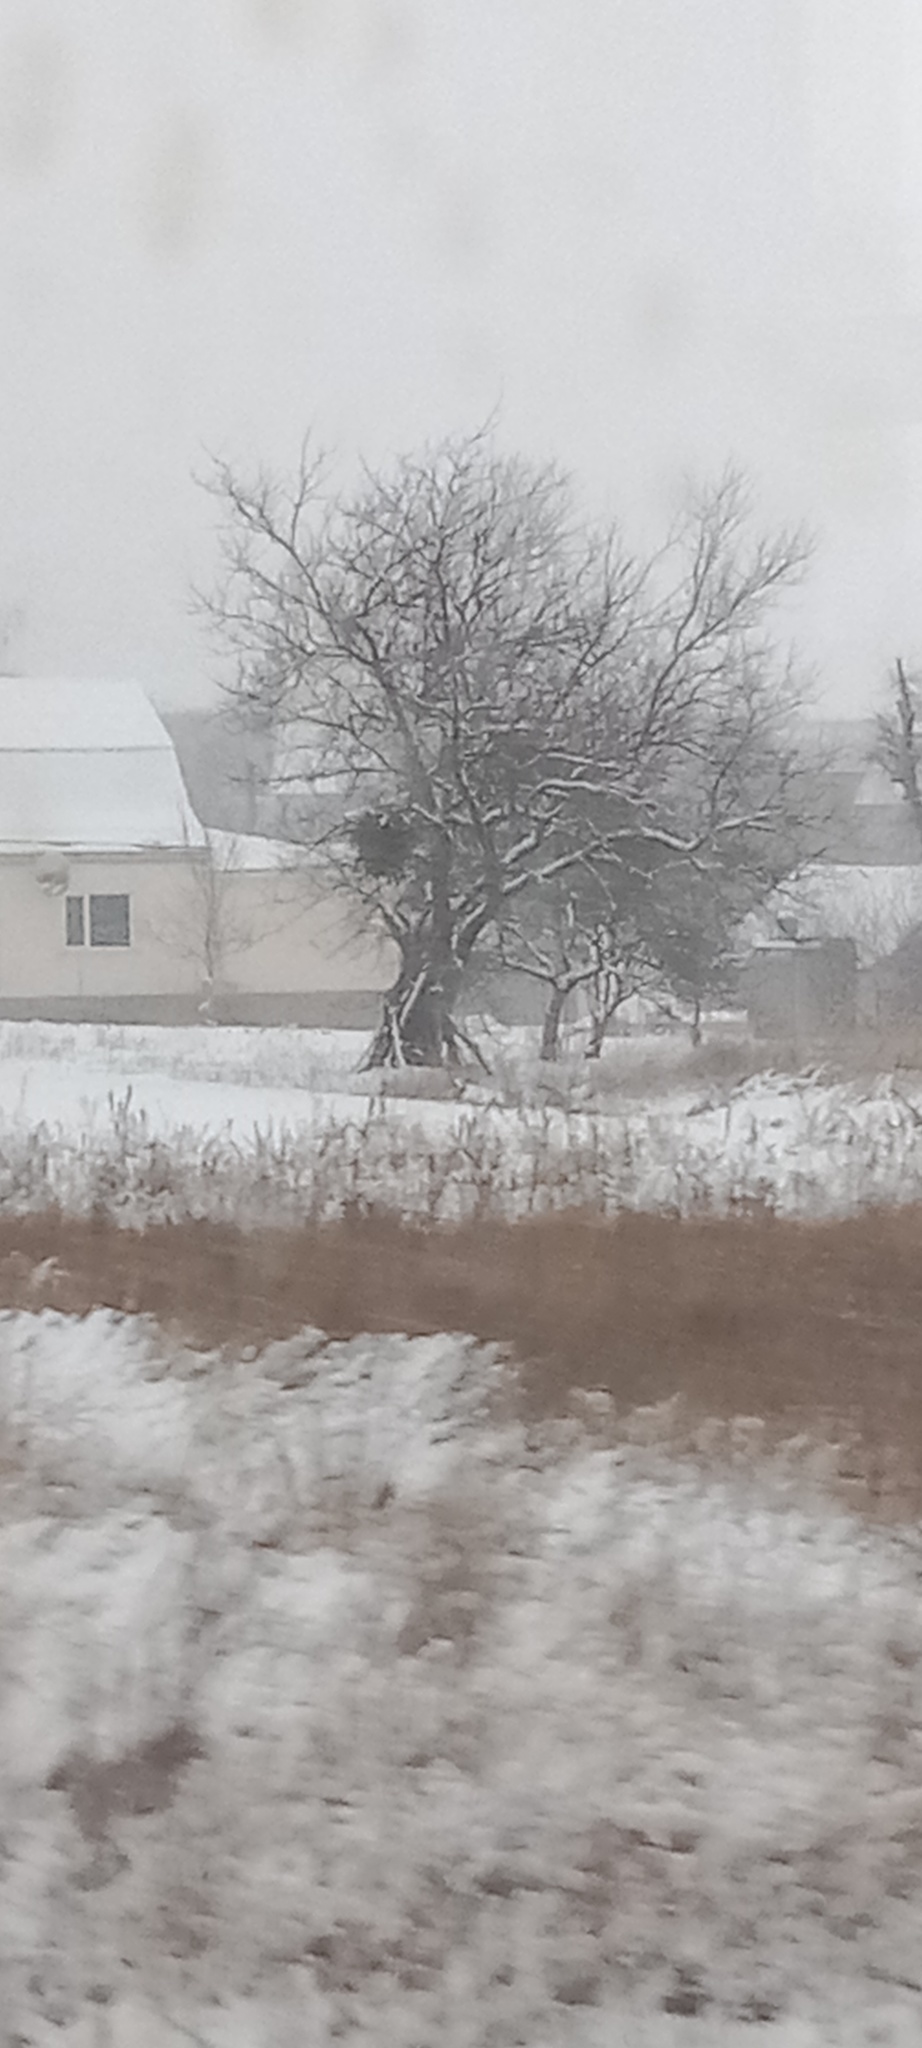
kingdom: Plantae
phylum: Tracheophyta
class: Magnoliopsida
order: Santalales
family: Viscaceae
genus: Viscum
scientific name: Viscum album
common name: Mistletoe
